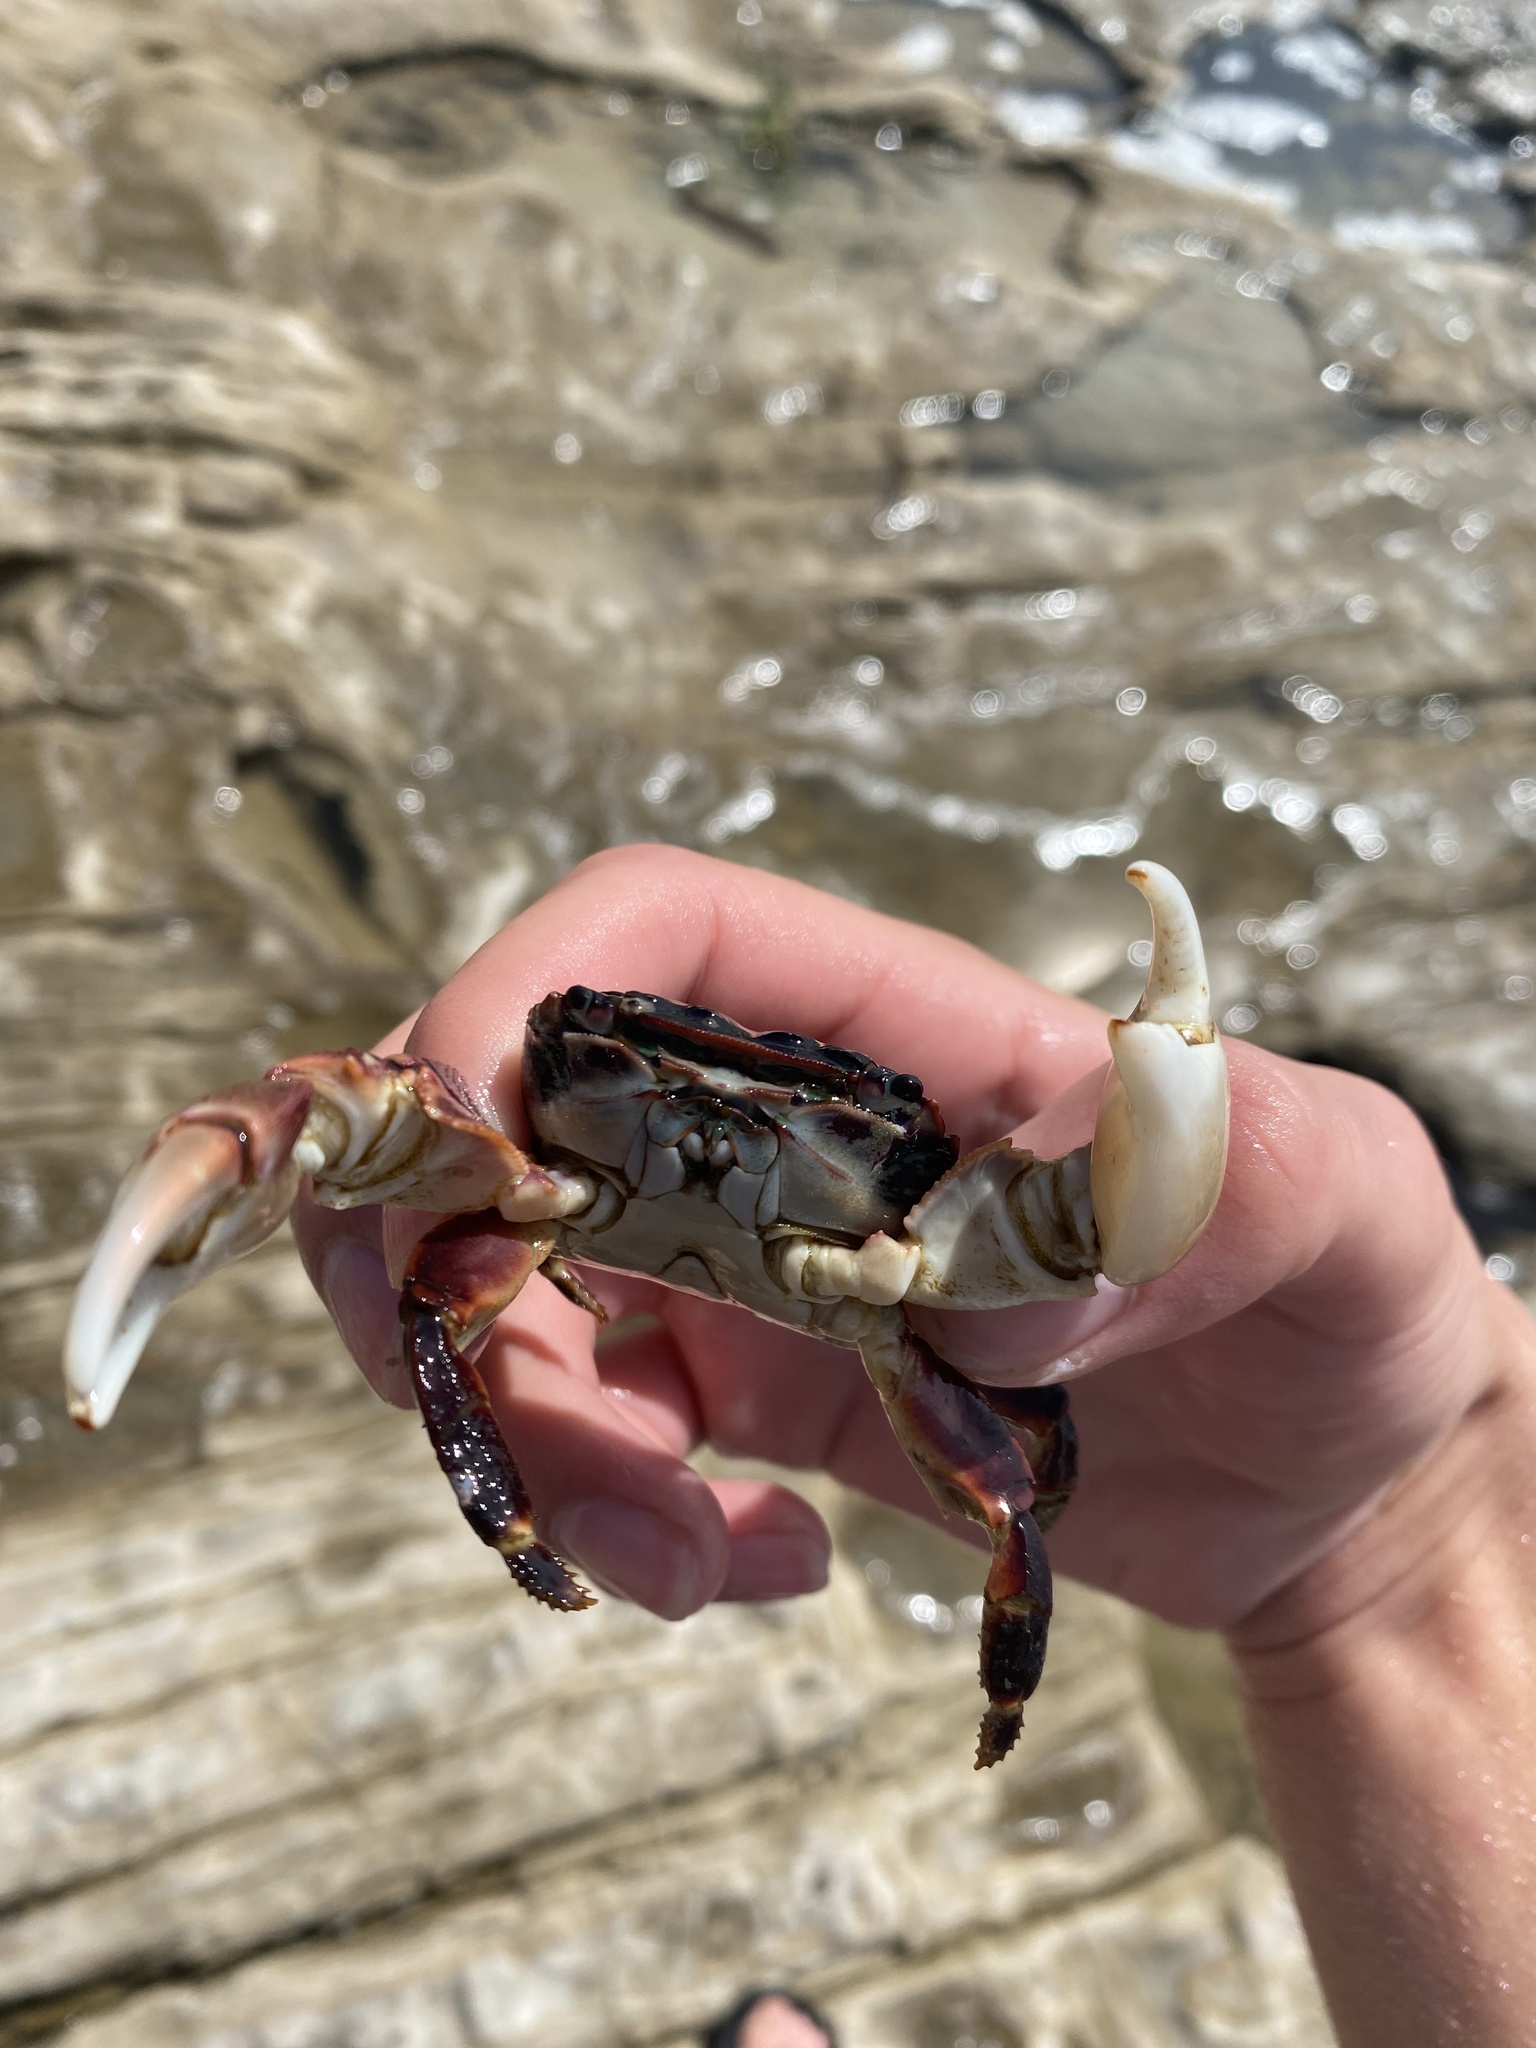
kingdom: Animalia
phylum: Arthropoda
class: Malacostraca
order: Decapoda
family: Grapsidae
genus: Pachygrapsus
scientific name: Pachygrapsus crassipes
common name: Striped shore crab
